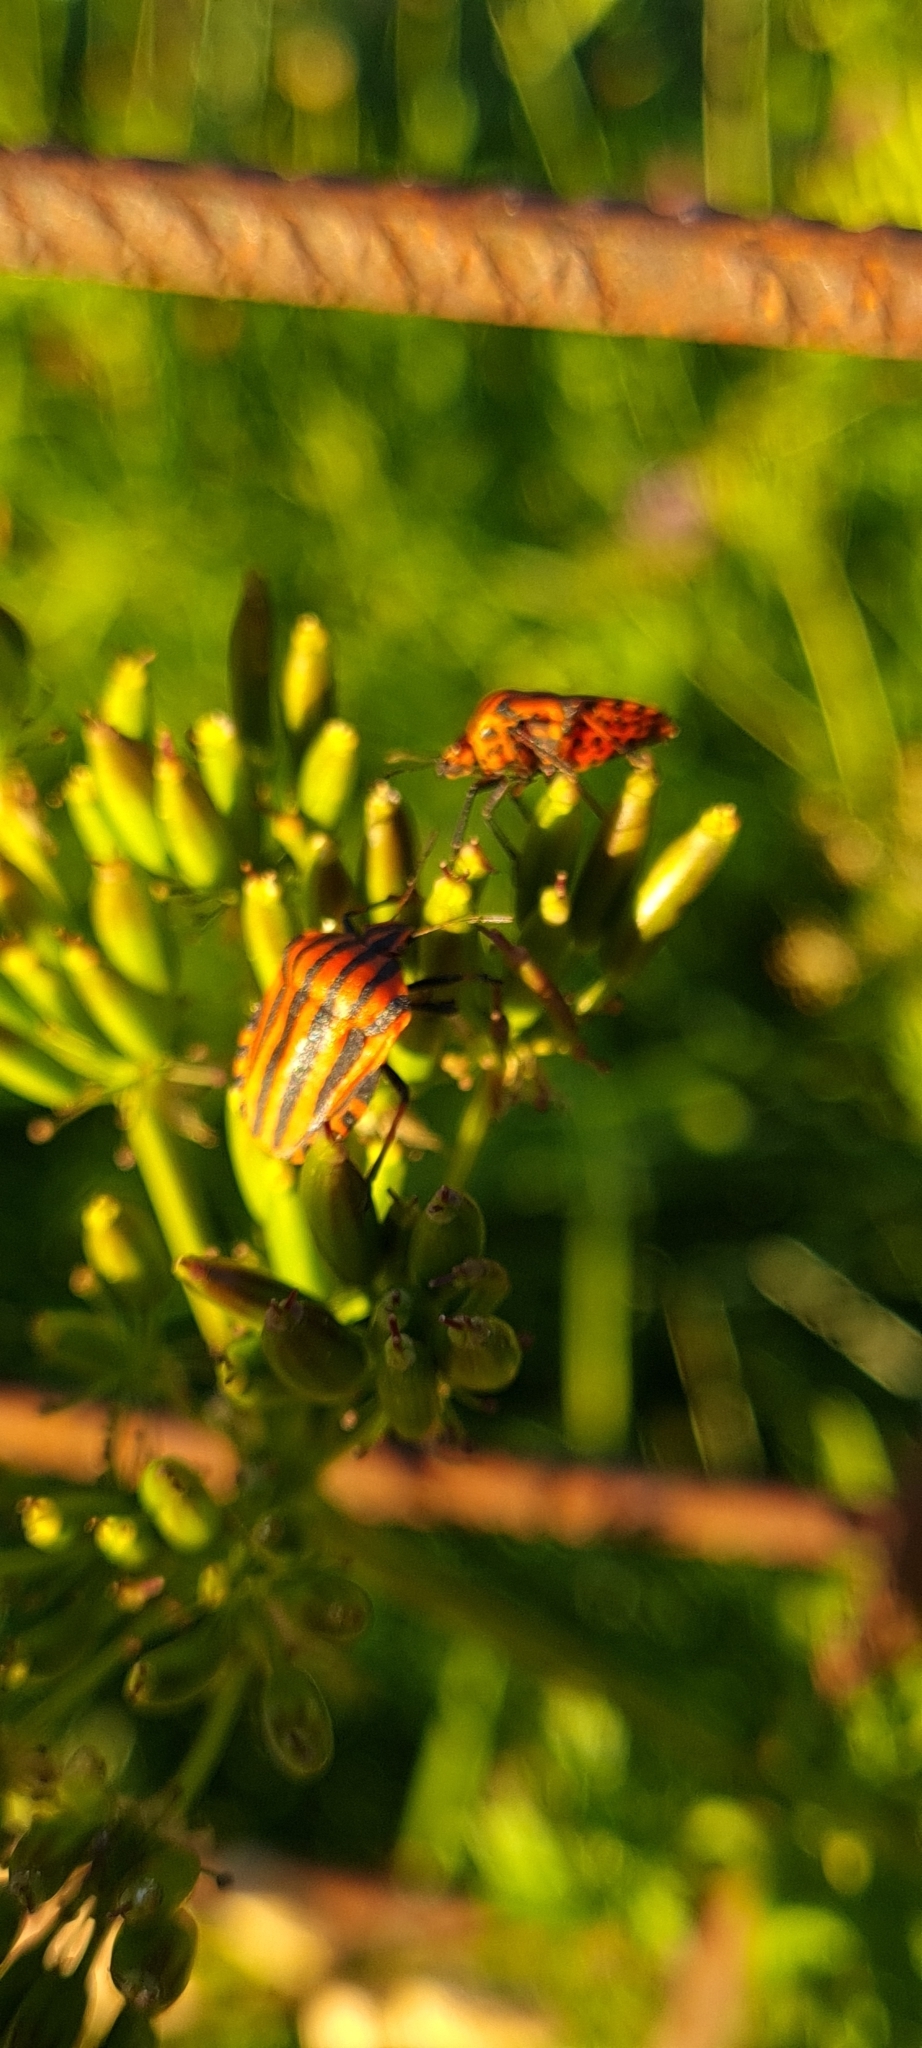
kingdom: Animalia
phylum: Arthropoda
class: Insecta
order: Hemiptera
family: Pentatomidae
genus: Graphosoma
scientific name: Graphosoma italicum
